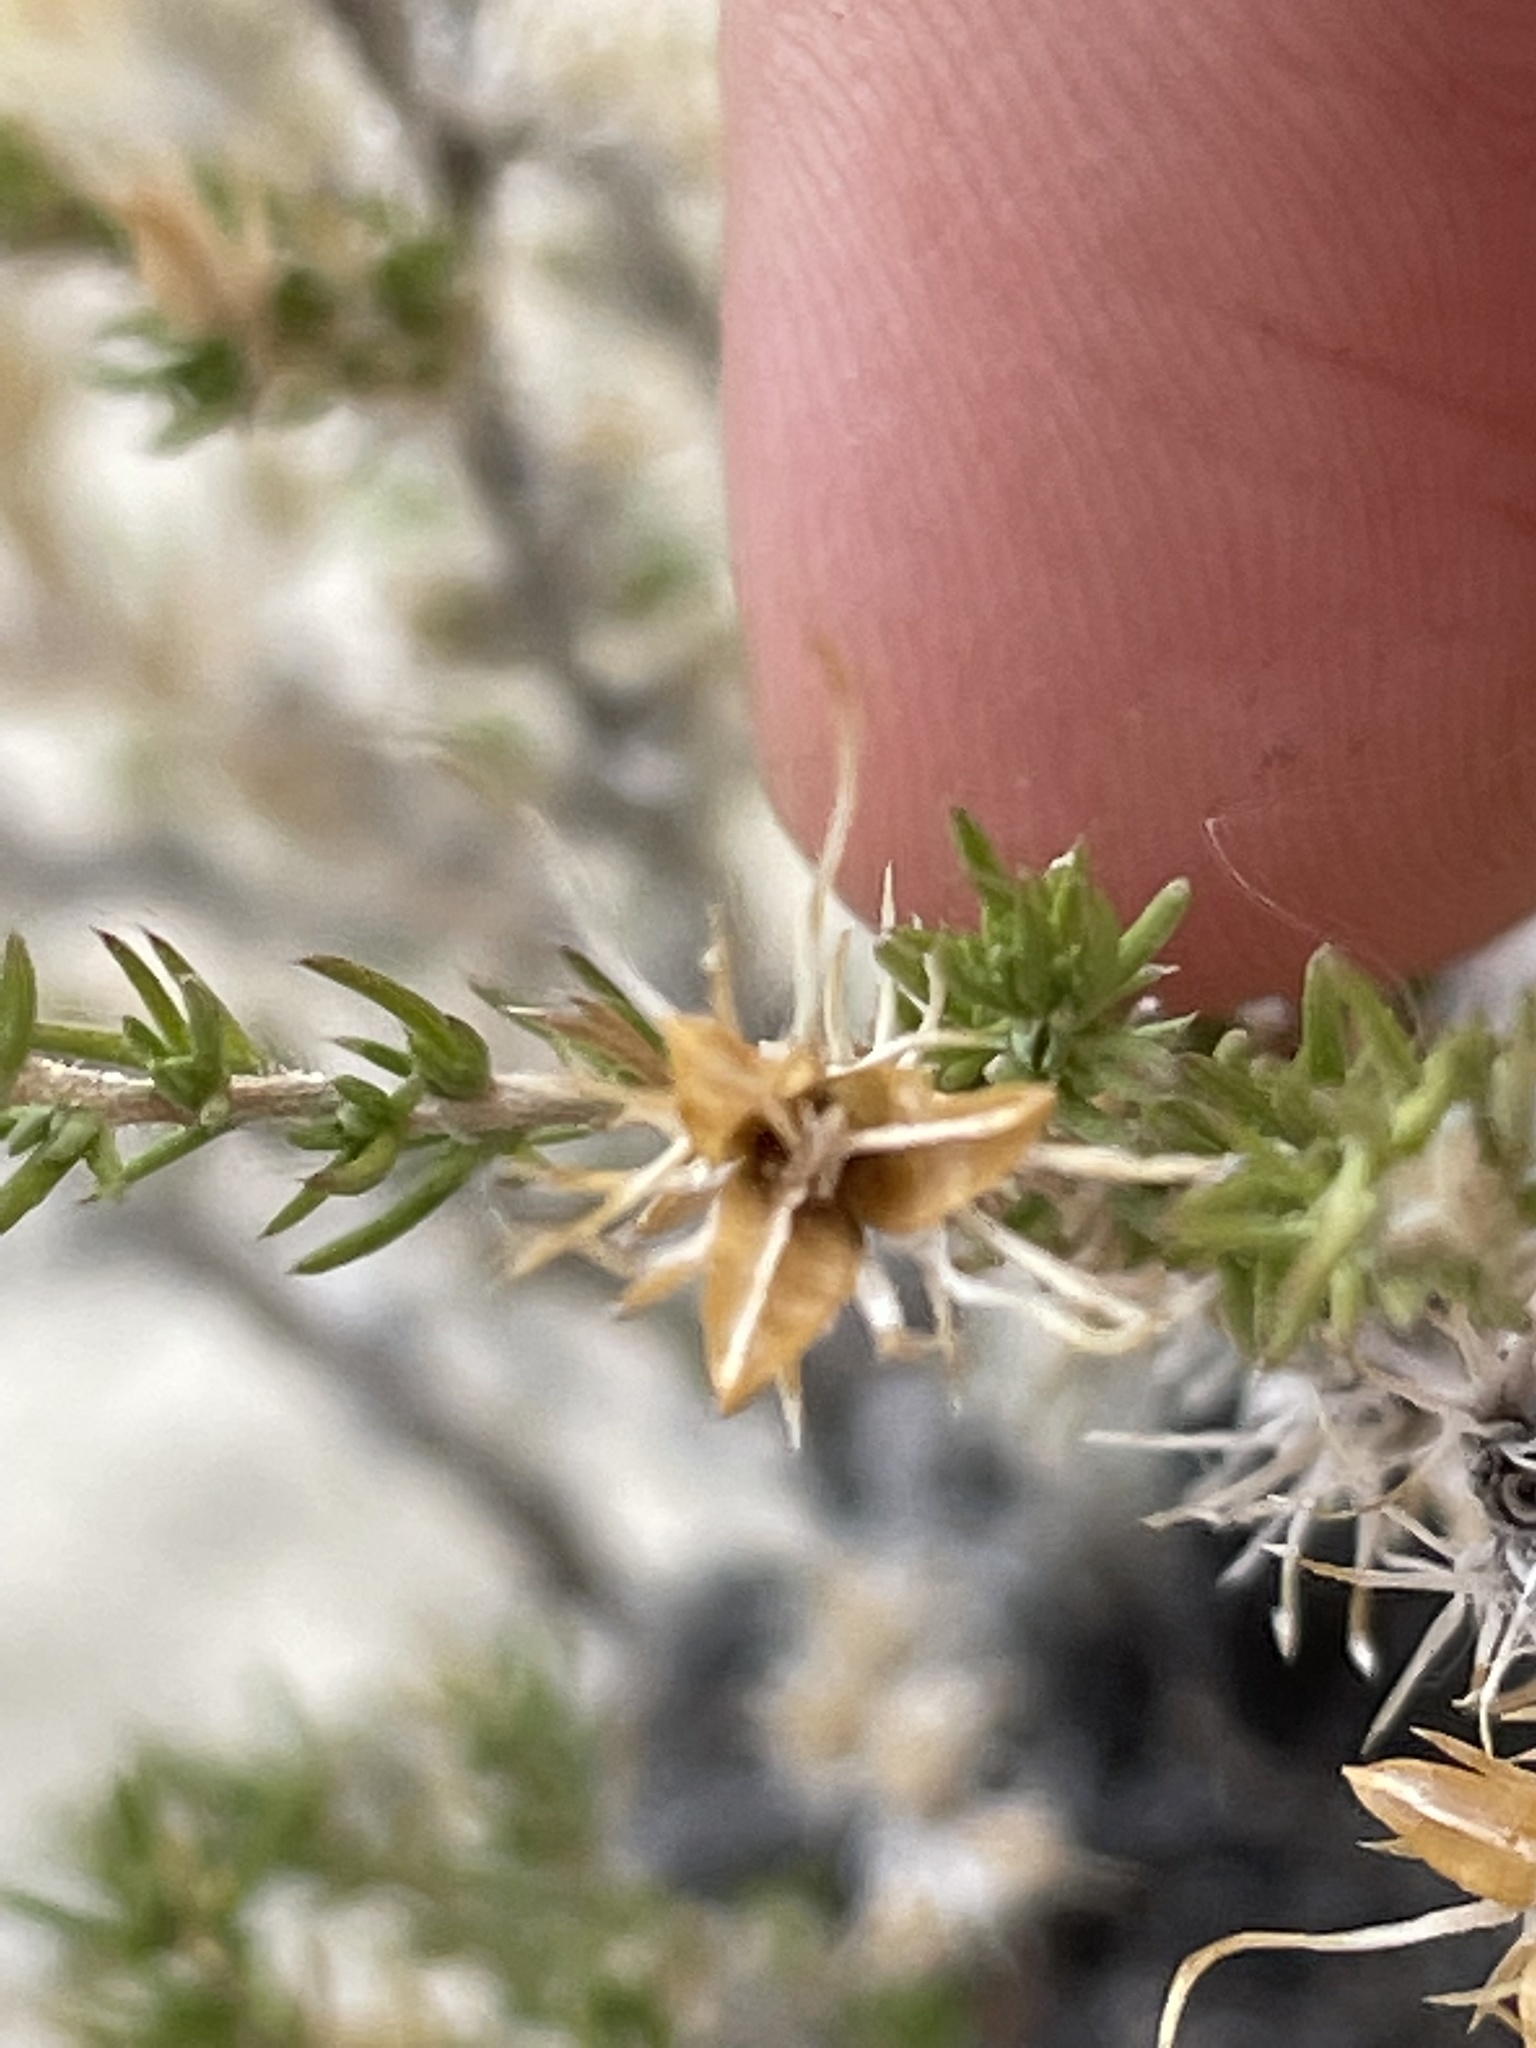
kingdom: Plantae
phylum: Tracheophyta
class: Magnoliopsida
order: Ericales
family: Polemoniaceae
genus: Linanthus
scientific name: Linanthus pungens
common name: Granite prickly phlox
